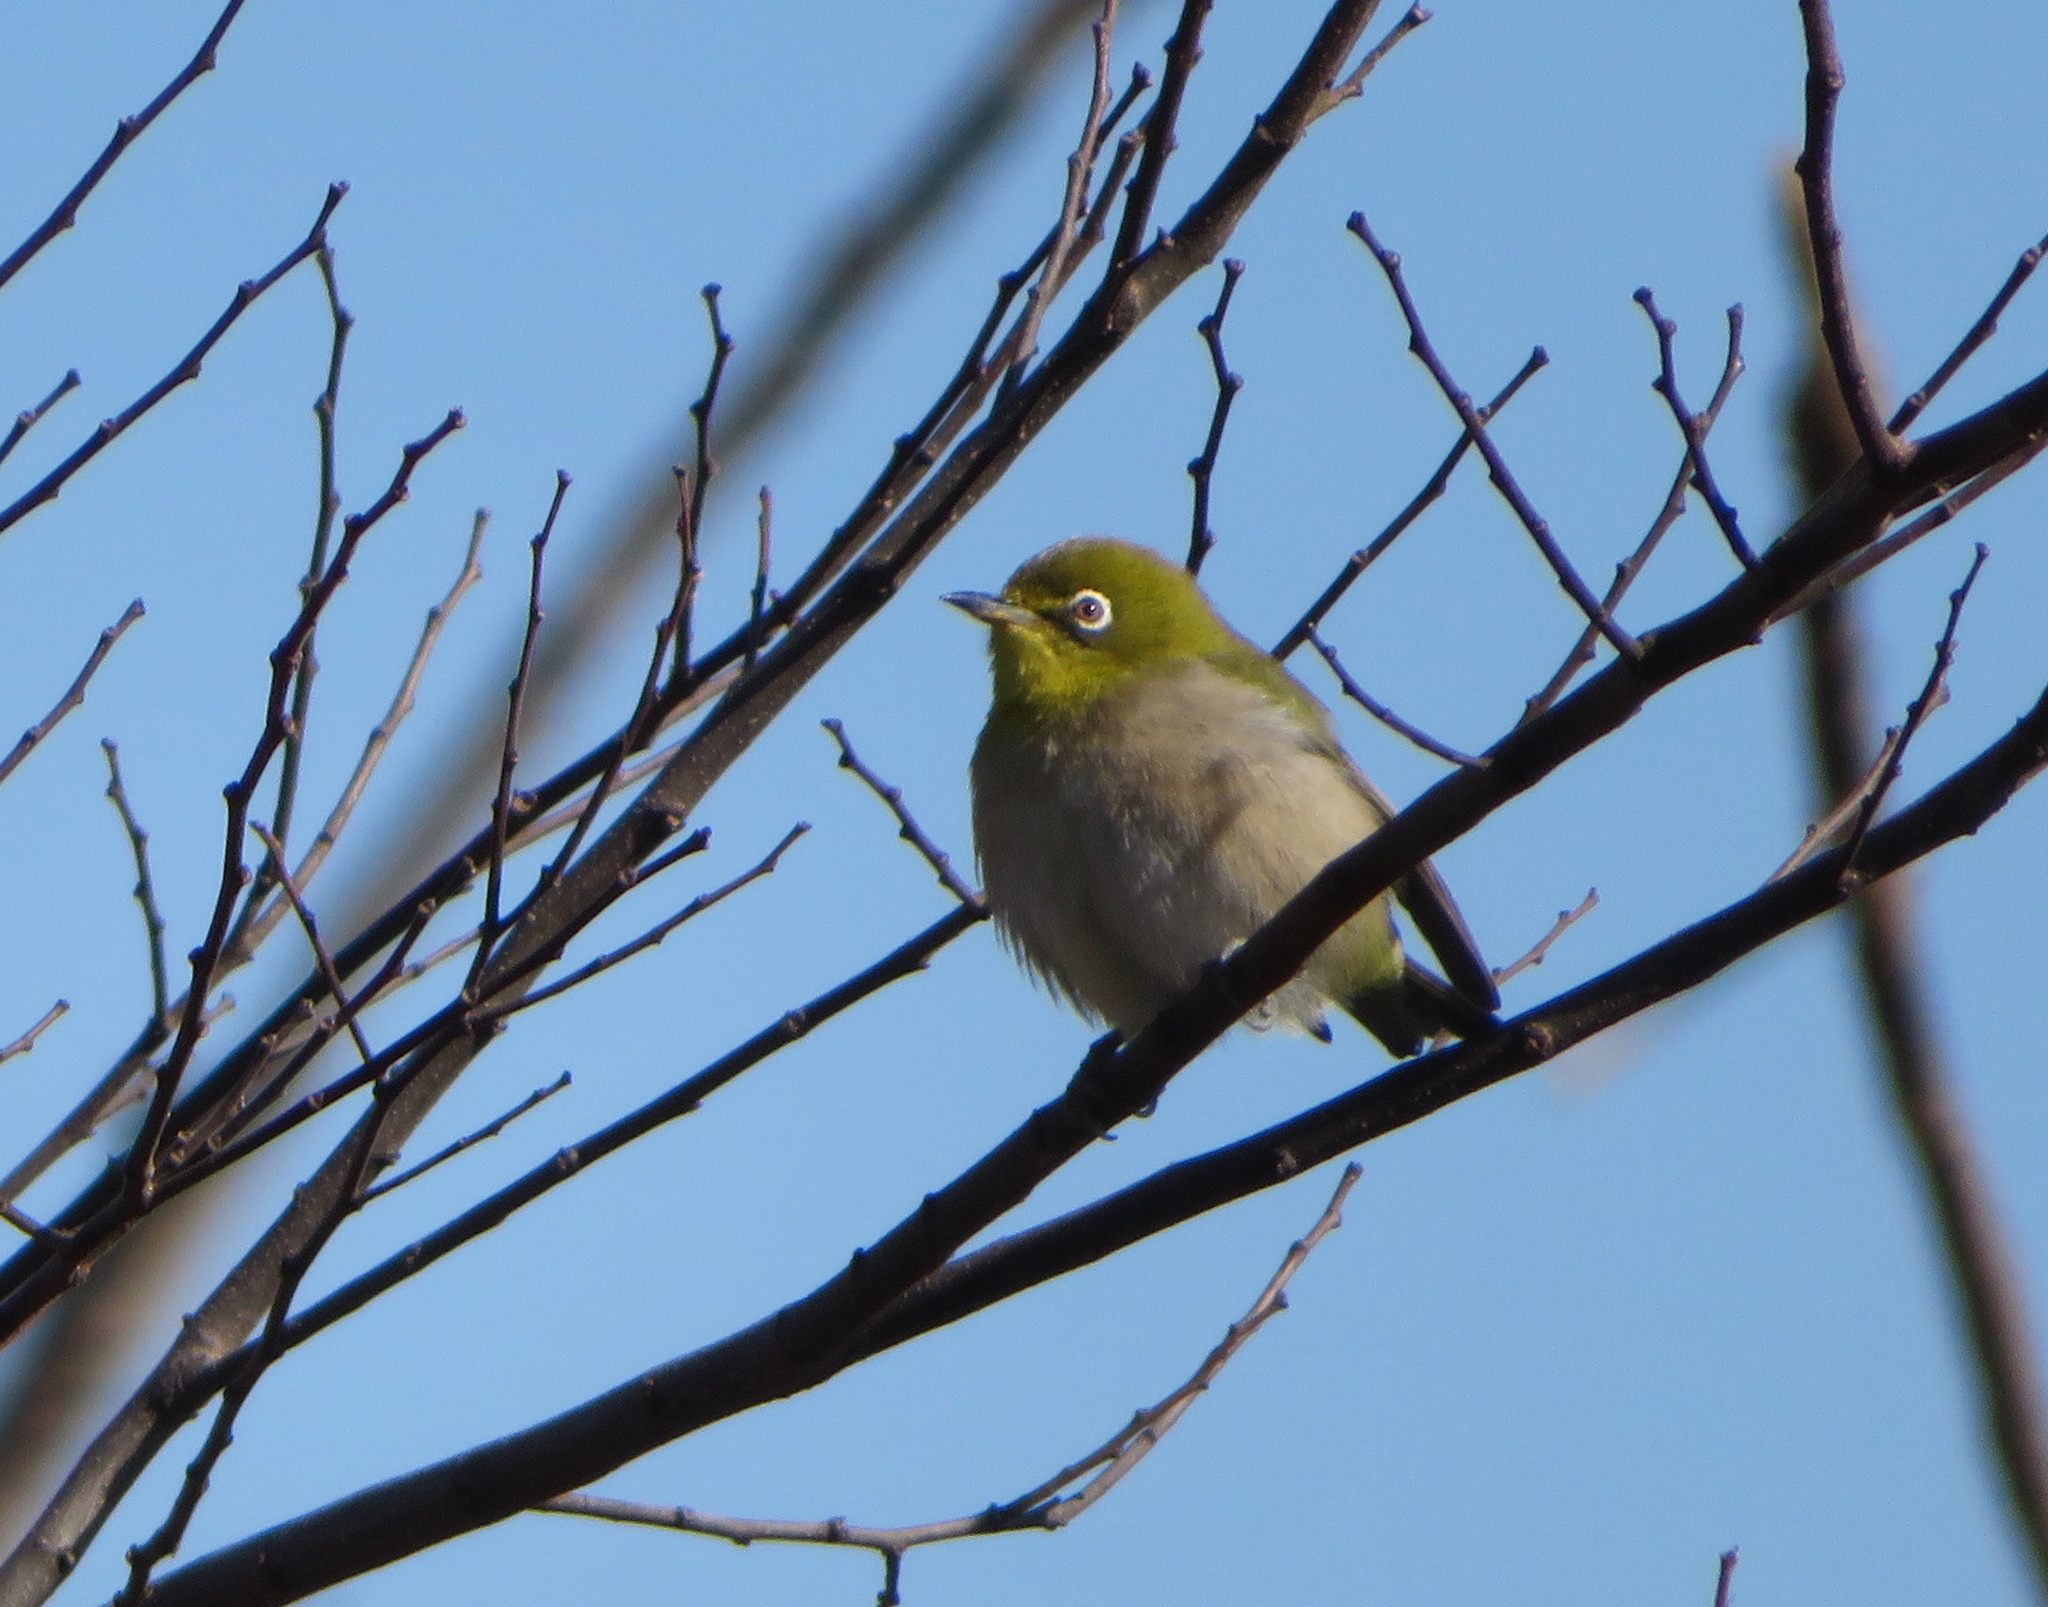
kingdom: Animalia
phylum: Chordata
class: Aves
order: Passeriformes
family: Zosteropidae
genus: Zosterops
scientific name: Zosterops japonicus
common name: Japanese white-eye
